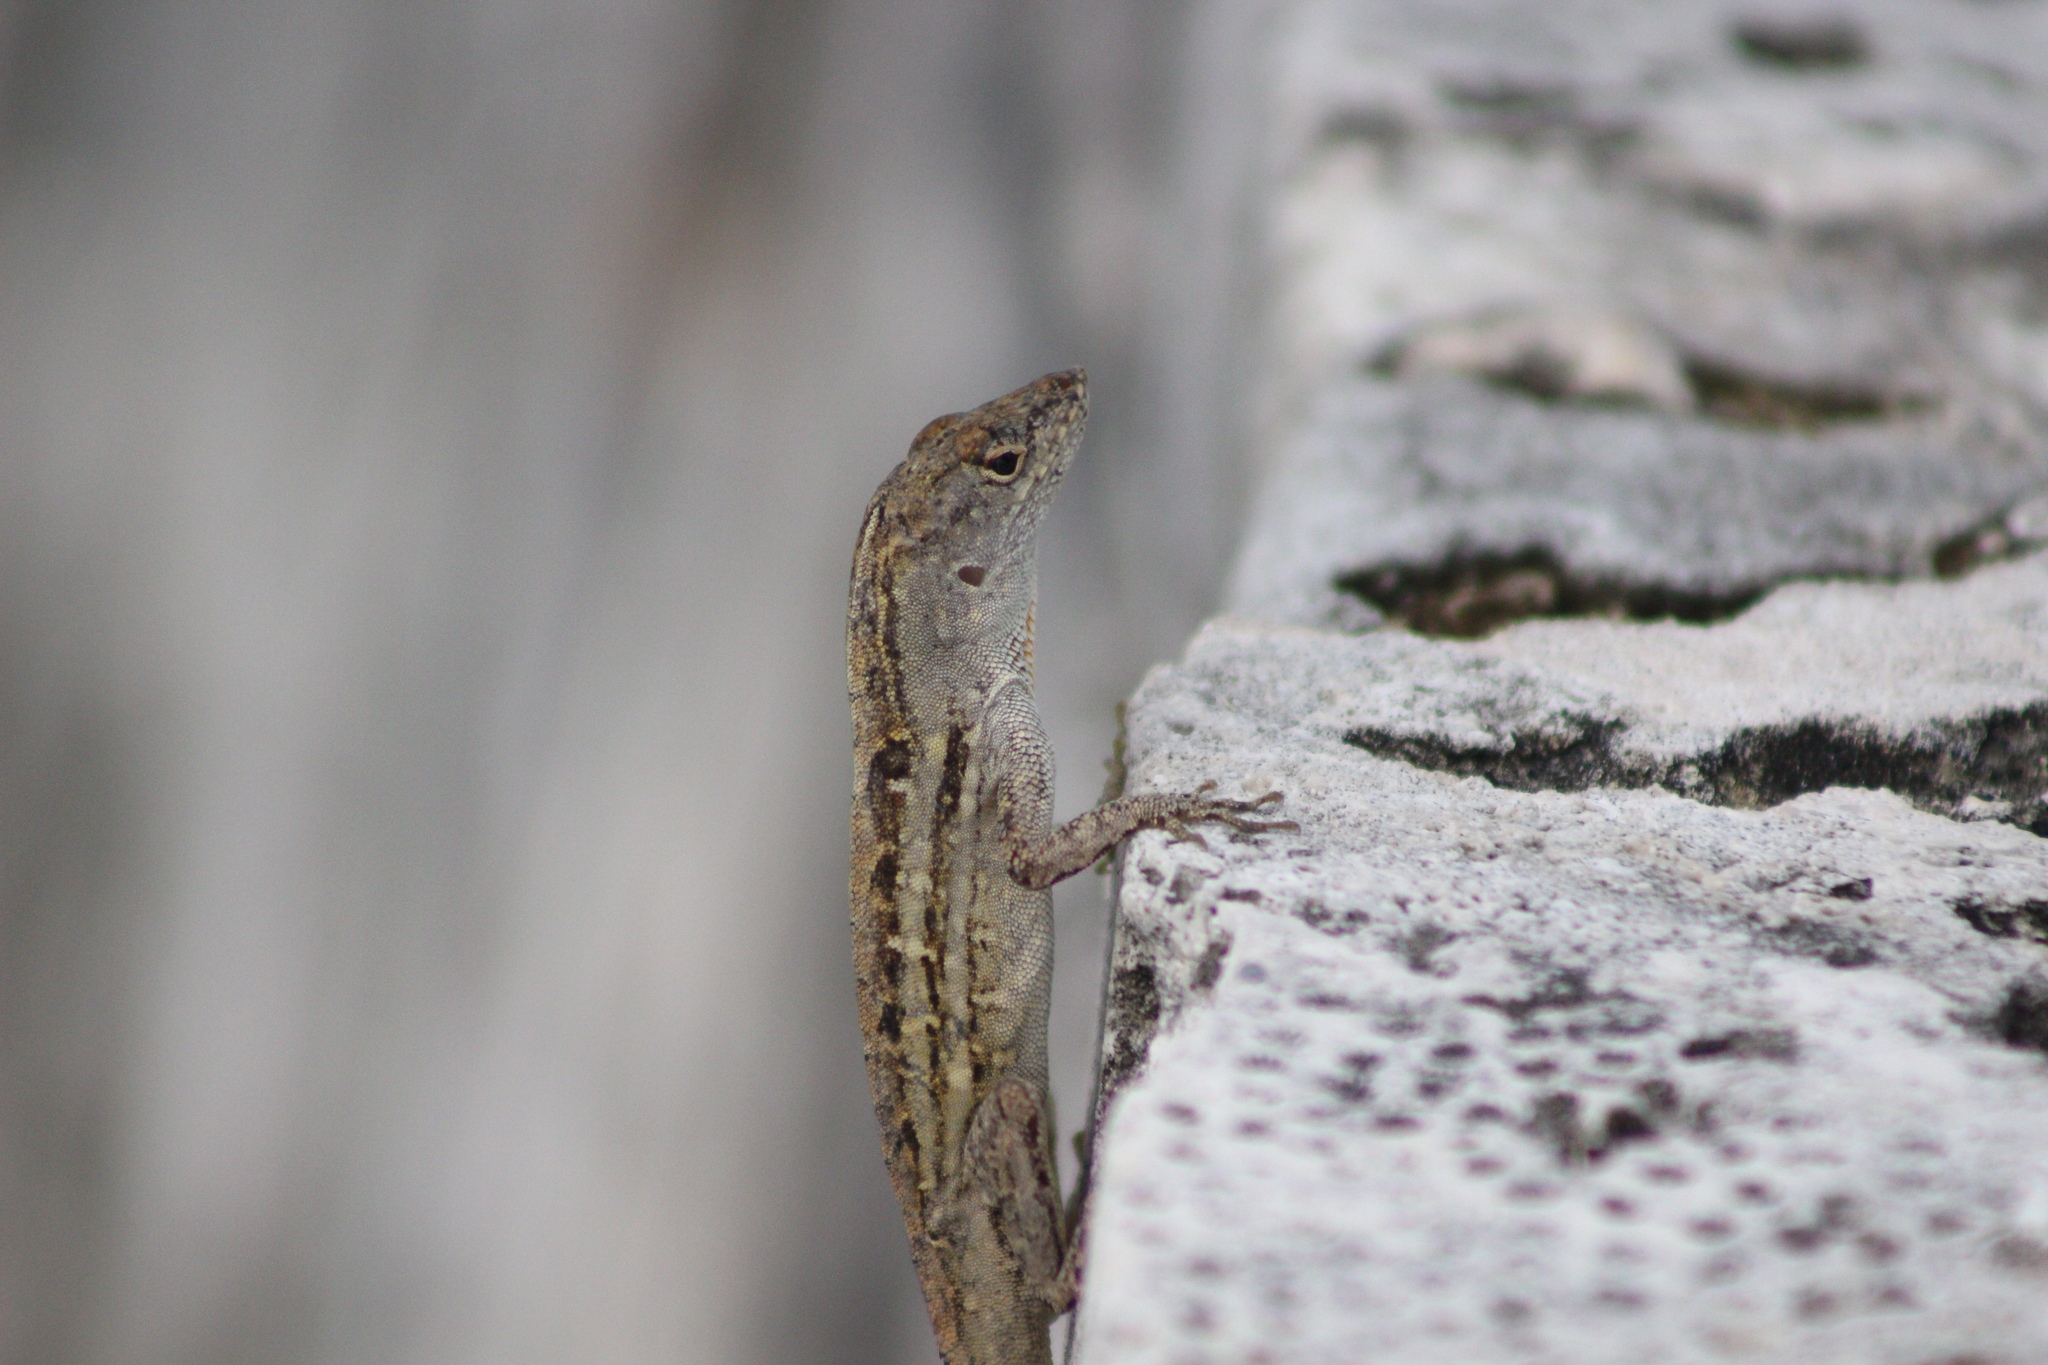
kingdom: Animalia
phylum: Chordata
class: Squamata
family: Dactyloidae
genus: Anolis
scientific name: Anolis sagrei
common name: Brown anole
